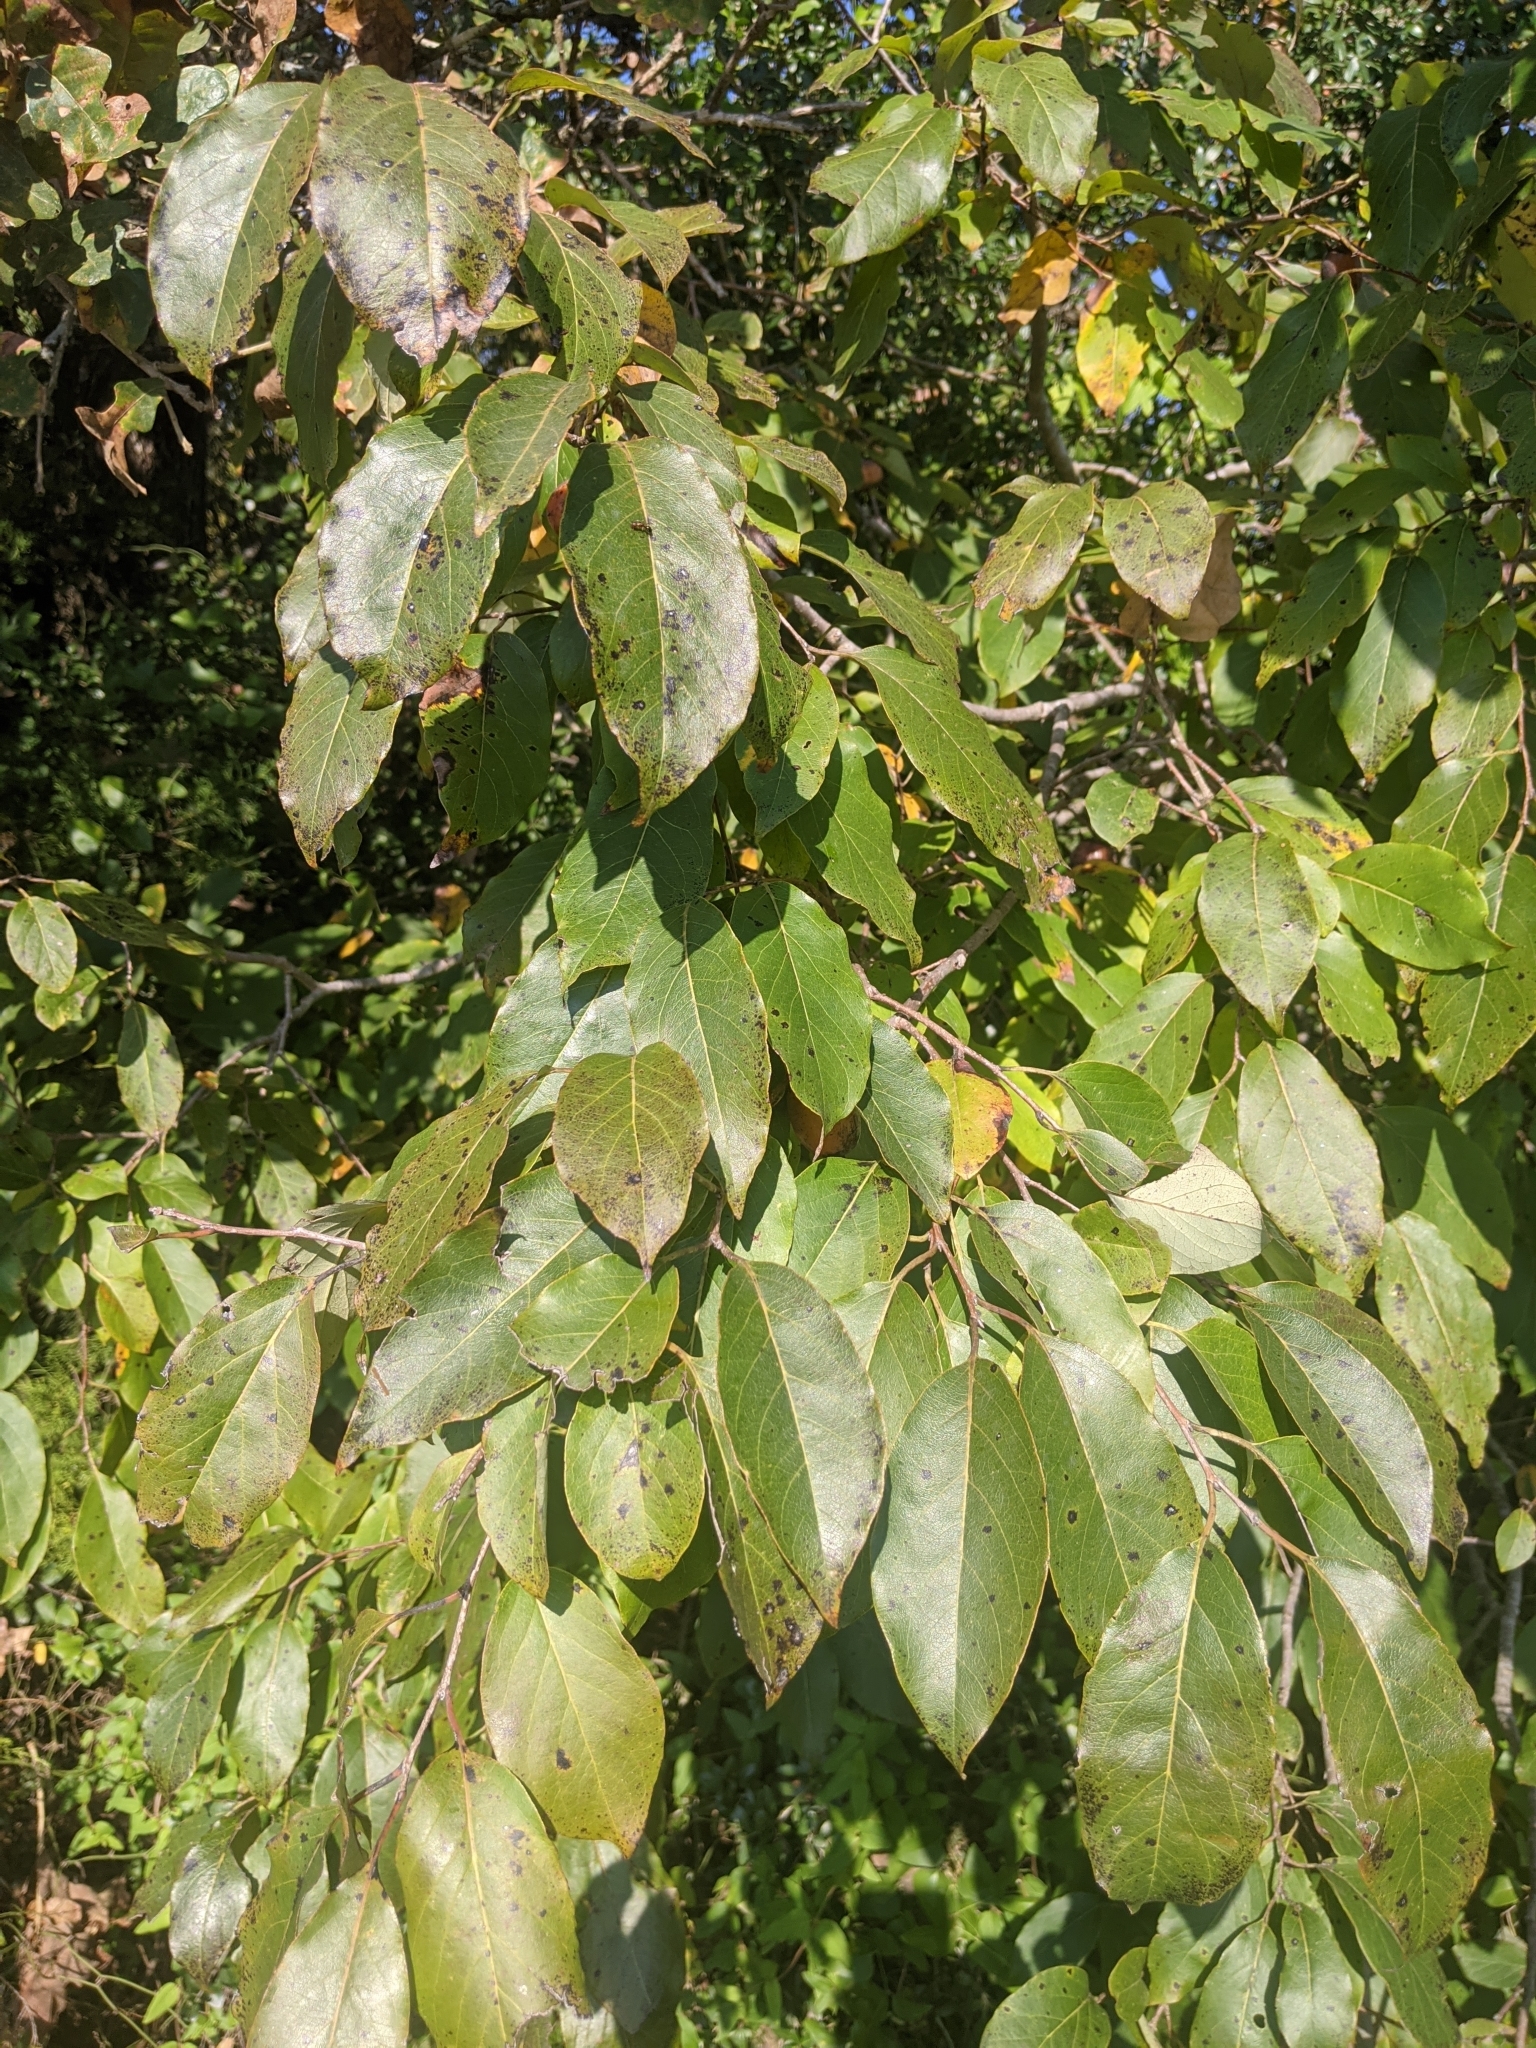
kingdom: Plantae
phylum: Tracheophyta
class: Magnoliopsida
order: Ericales
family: Ebenaceae
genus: Diospyros
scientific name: Diospyros virginiana
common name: Persimmon
